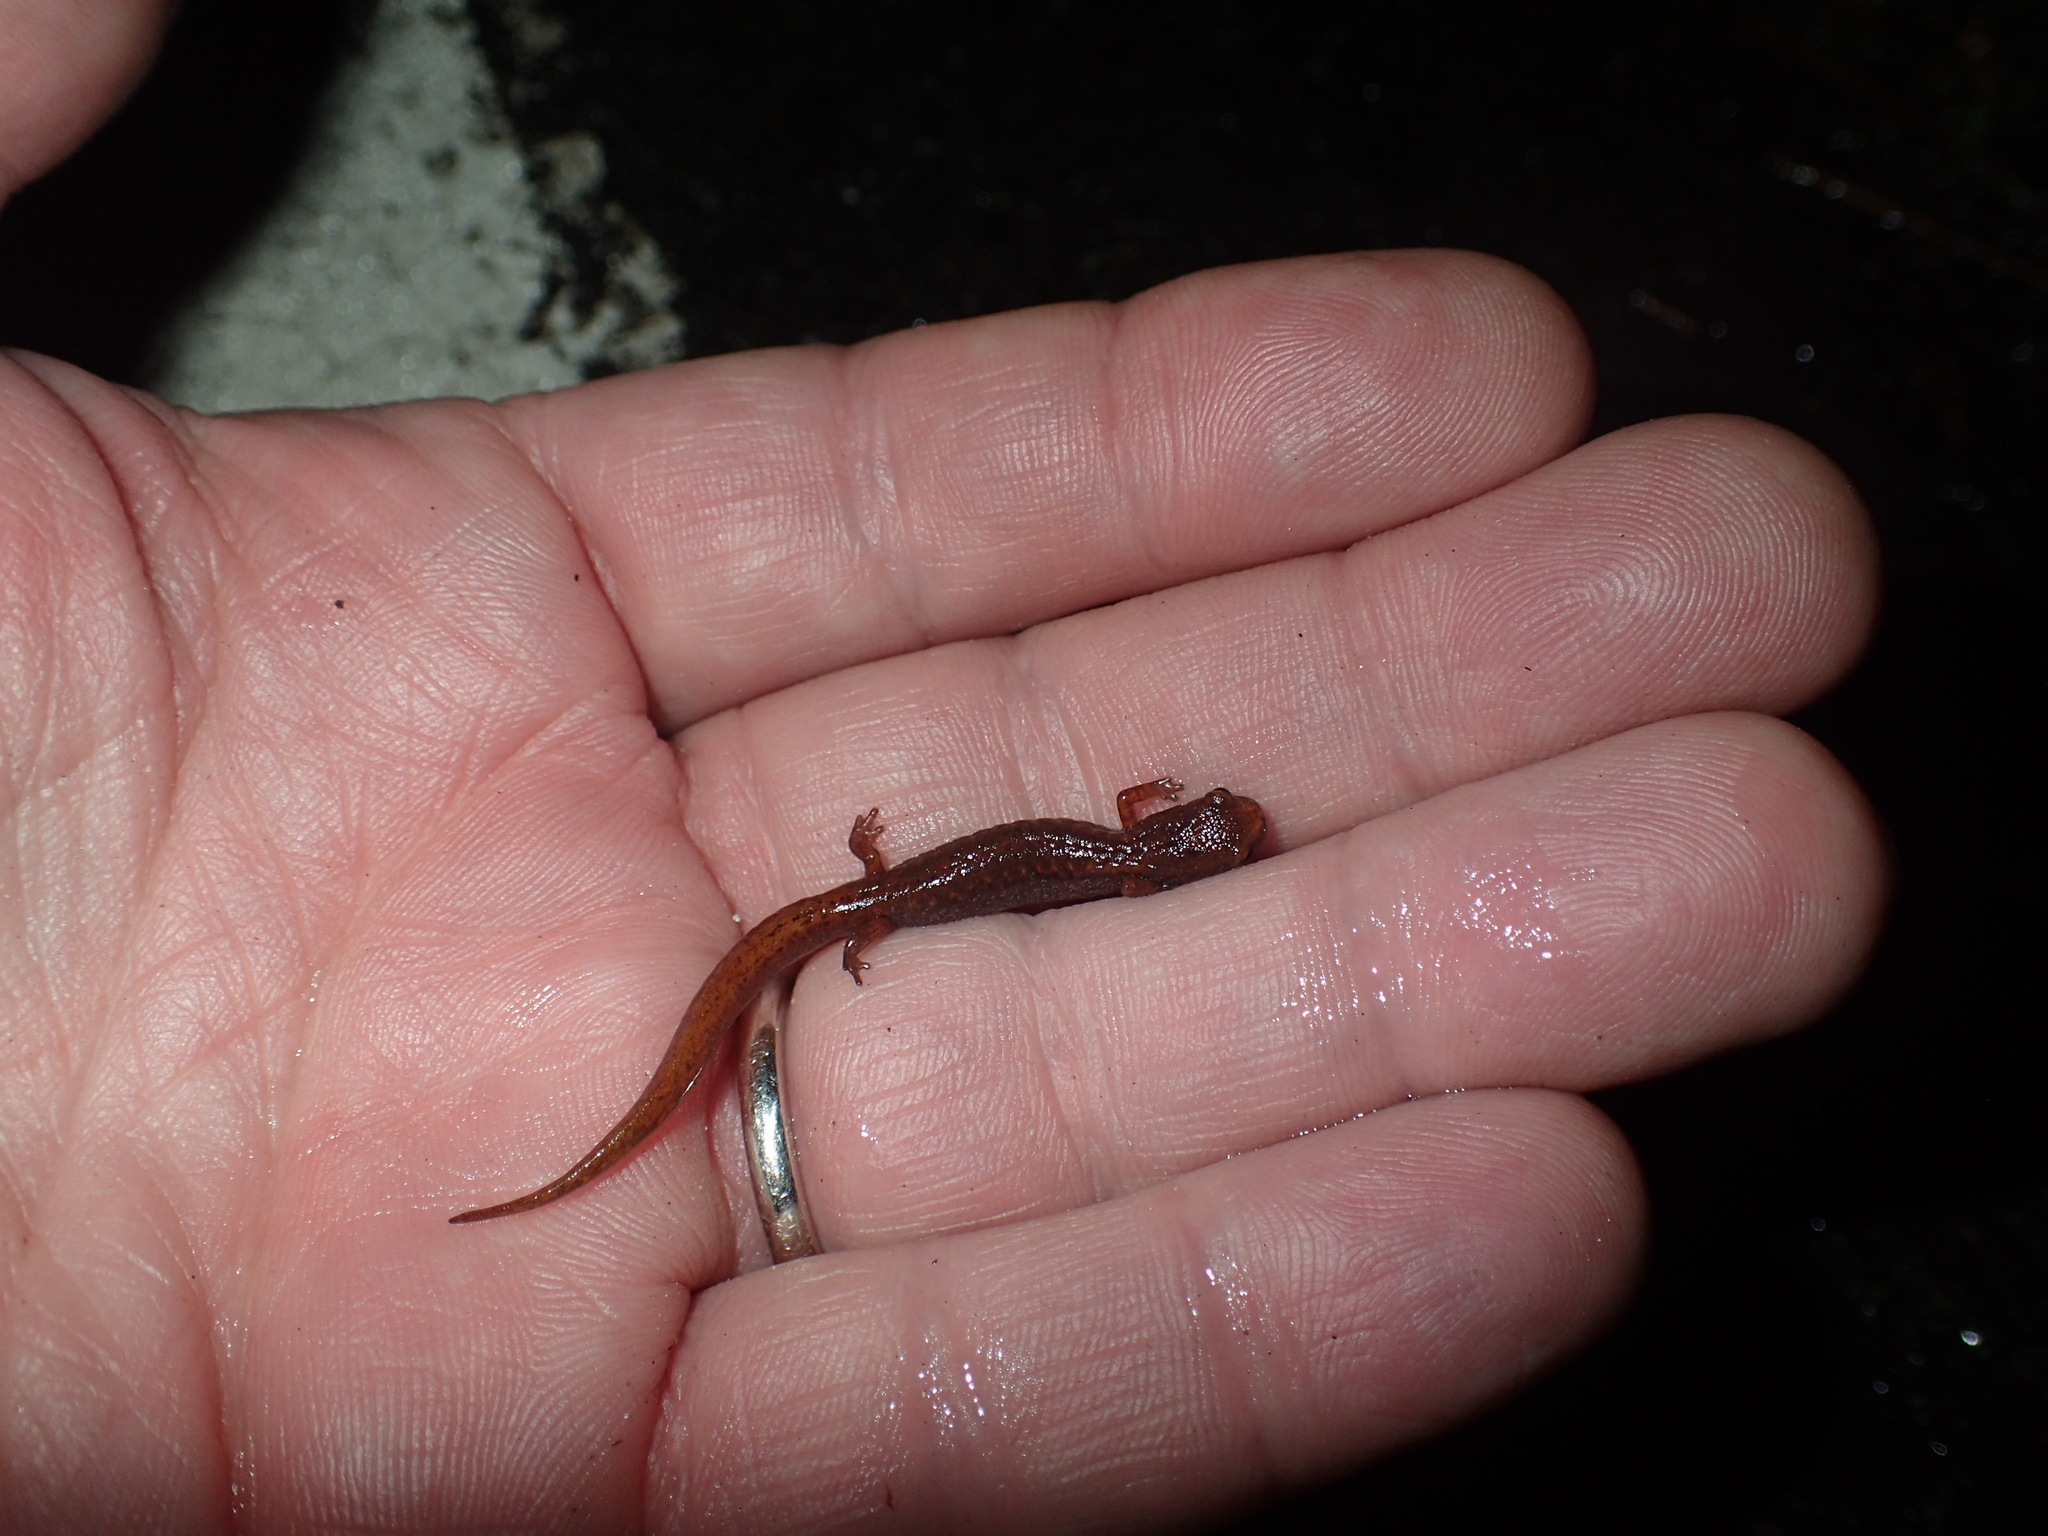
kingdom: Animalia
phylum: Chordata
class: Amphibia
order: Caudata
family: Plethodontidae
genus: Hemidactylium
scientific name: Hemidactylium scutatum
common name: Four-toed salamander
